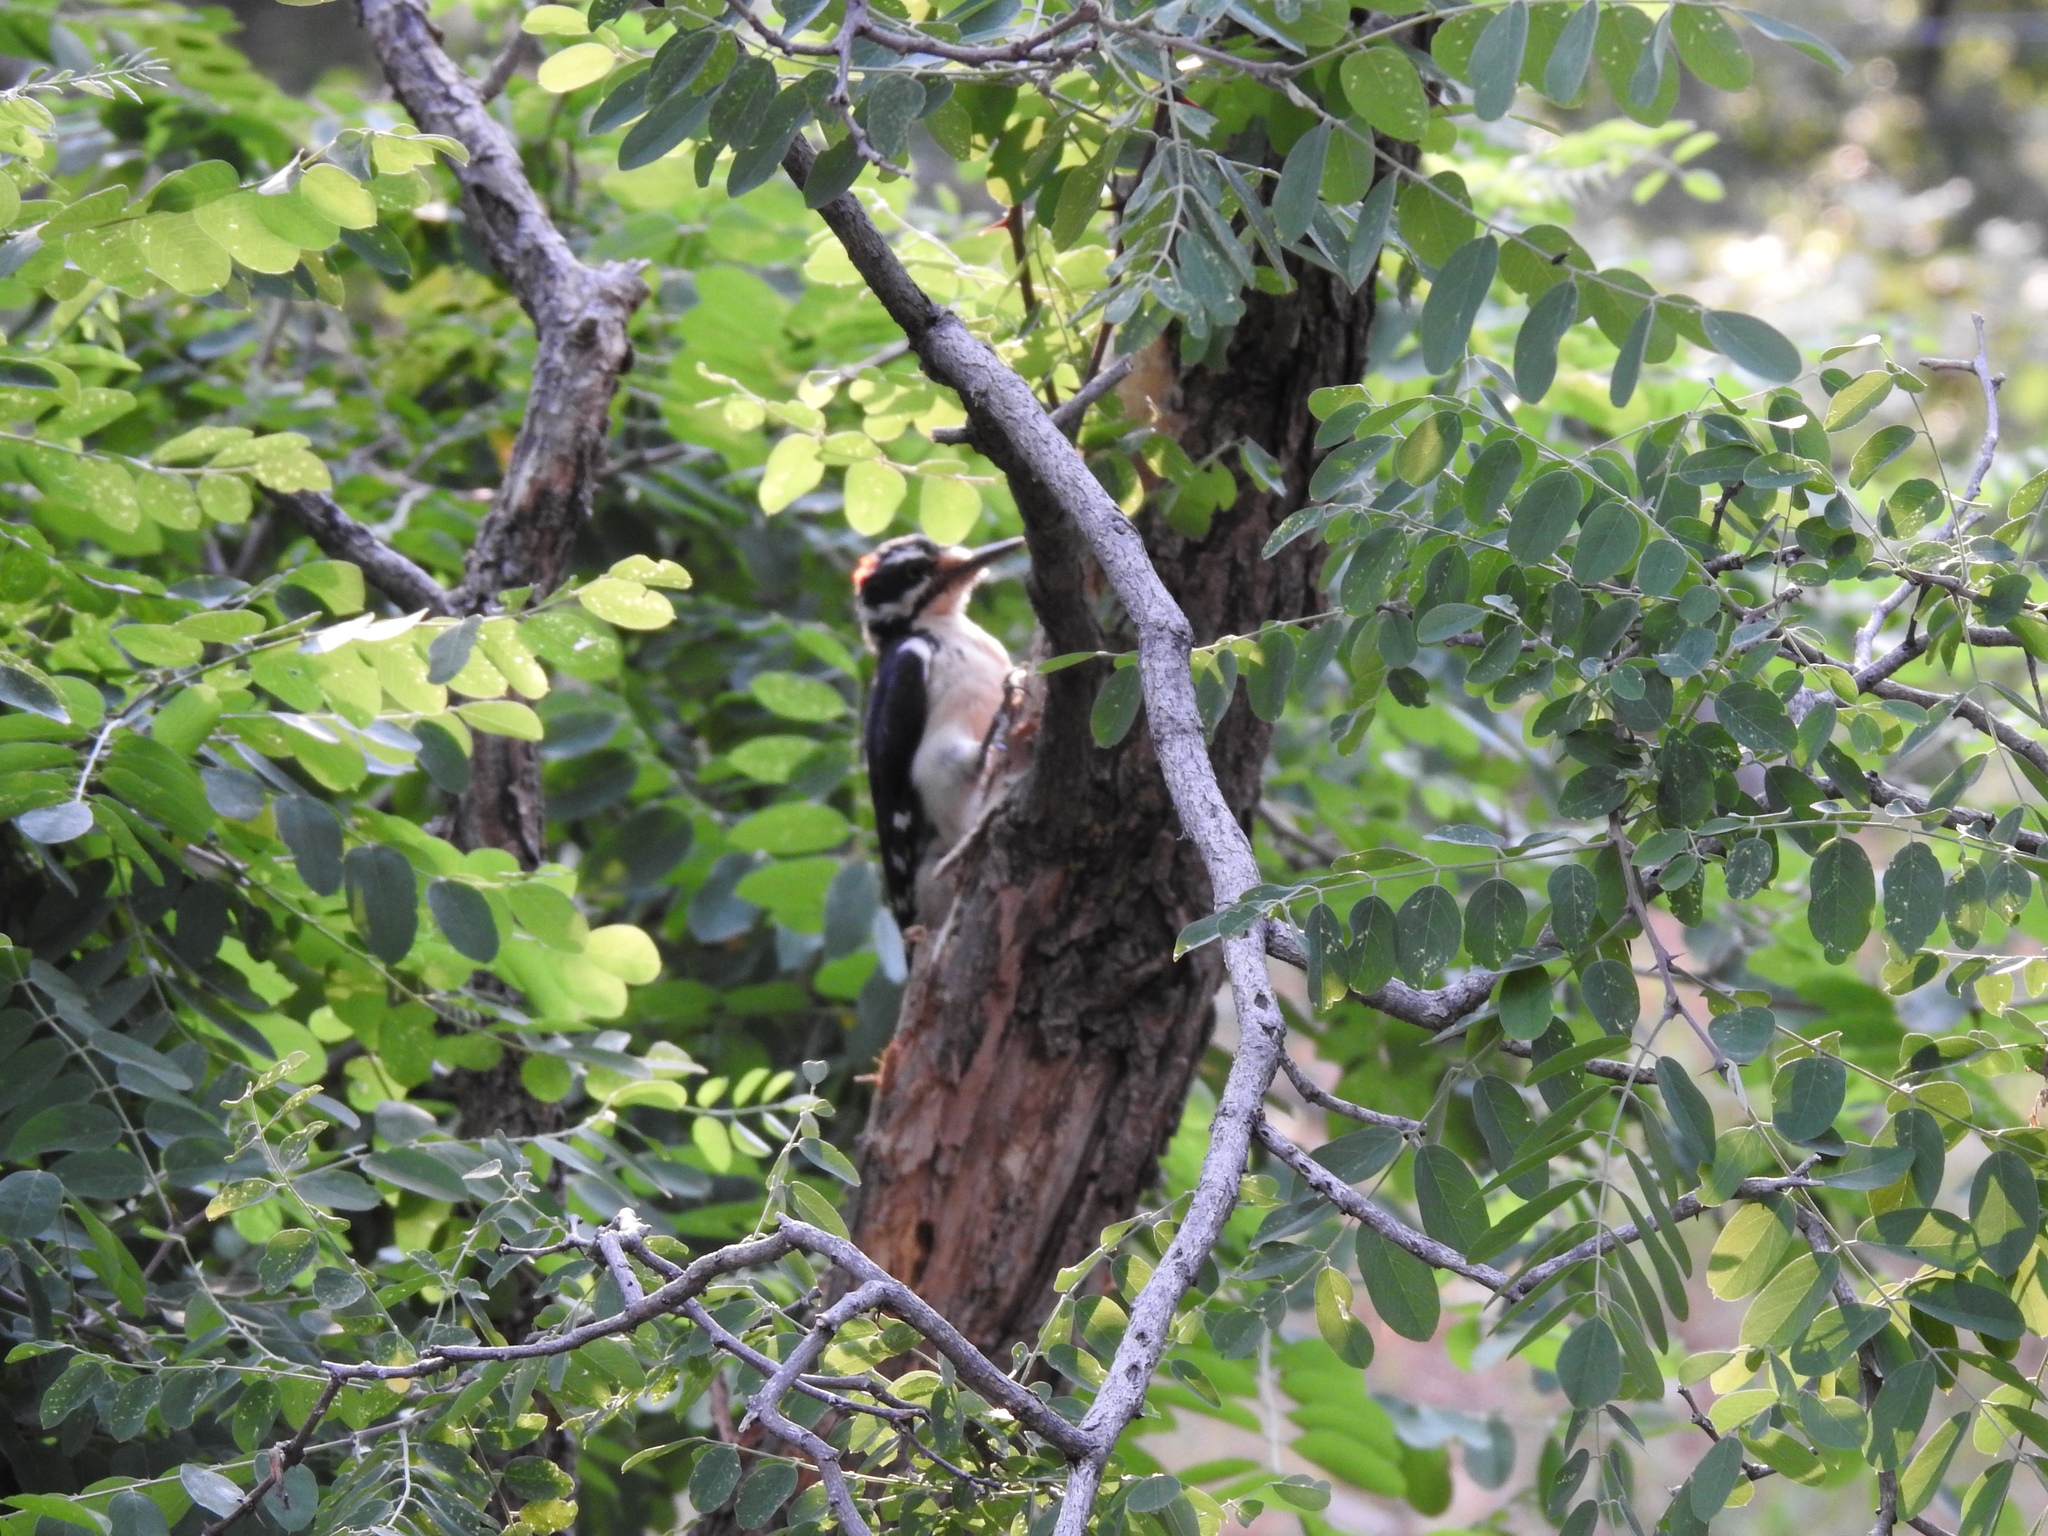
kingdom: Animalia
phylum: Chordata
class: Aves
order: Piciformes
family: Picidae
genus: Leuconotopicus
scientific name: Leuconotopicus villosus
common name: Hairy woodpecker
